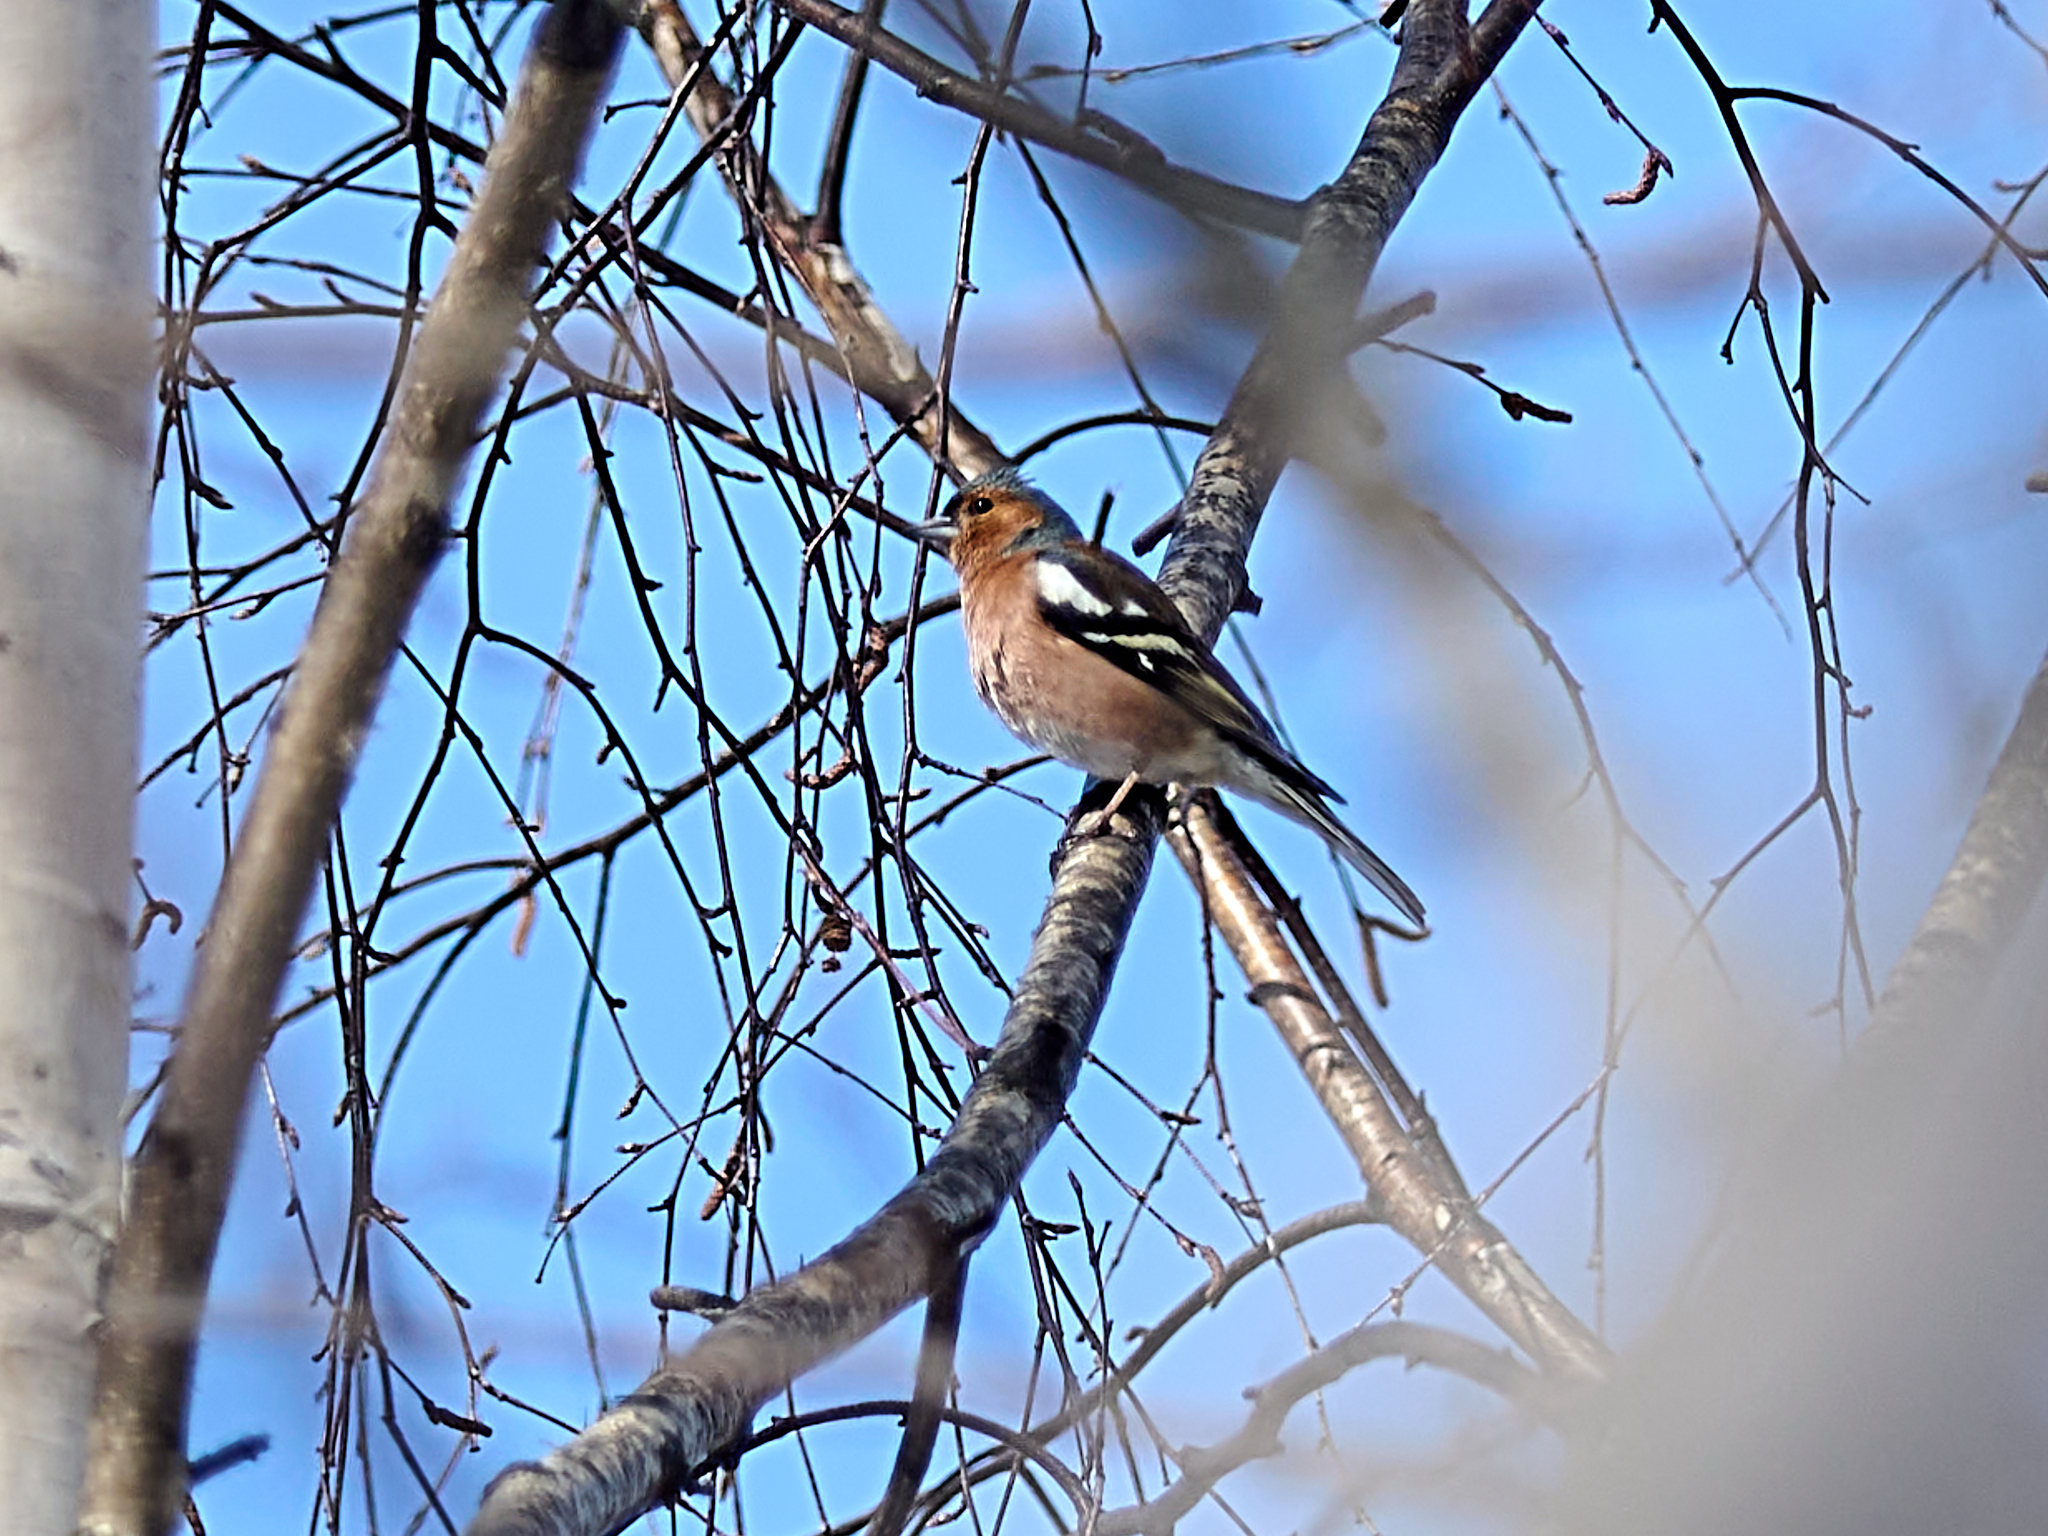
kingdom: Animalia
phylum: Chordata
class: Aves
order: Passeriformes
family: Fringillidae
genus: Fringilla
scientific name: Fringilla coelebs
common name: Common chaffinch
